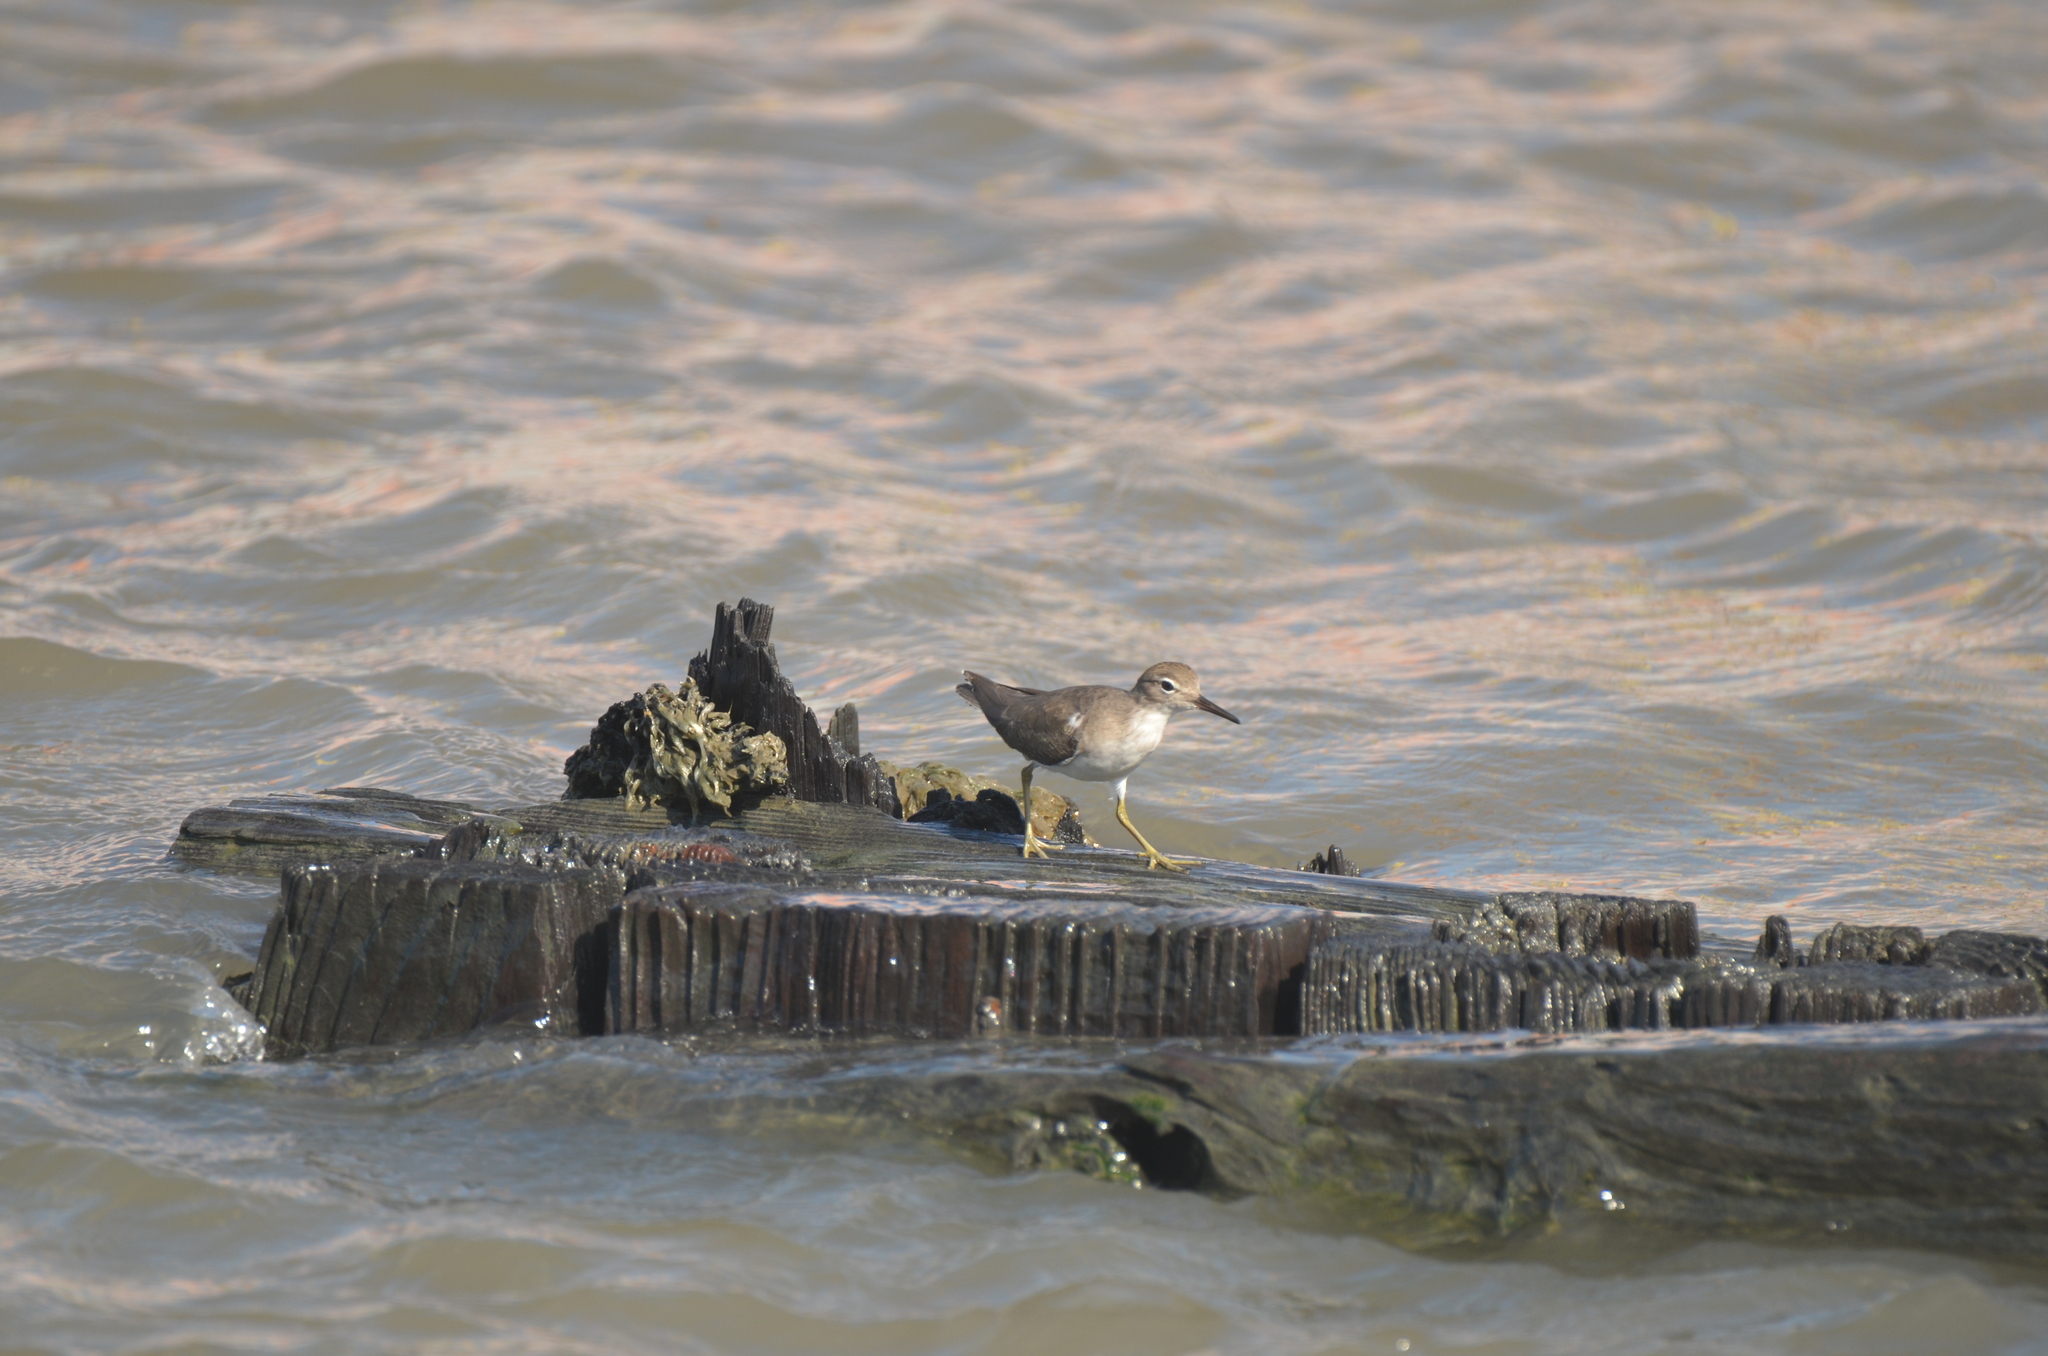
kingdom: Animalia
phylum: Chordata
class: Aves
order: Charadriiformes
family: Scolopacidae
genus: Actitis
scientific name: Actitis macularius
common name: Spotted sandpiper
